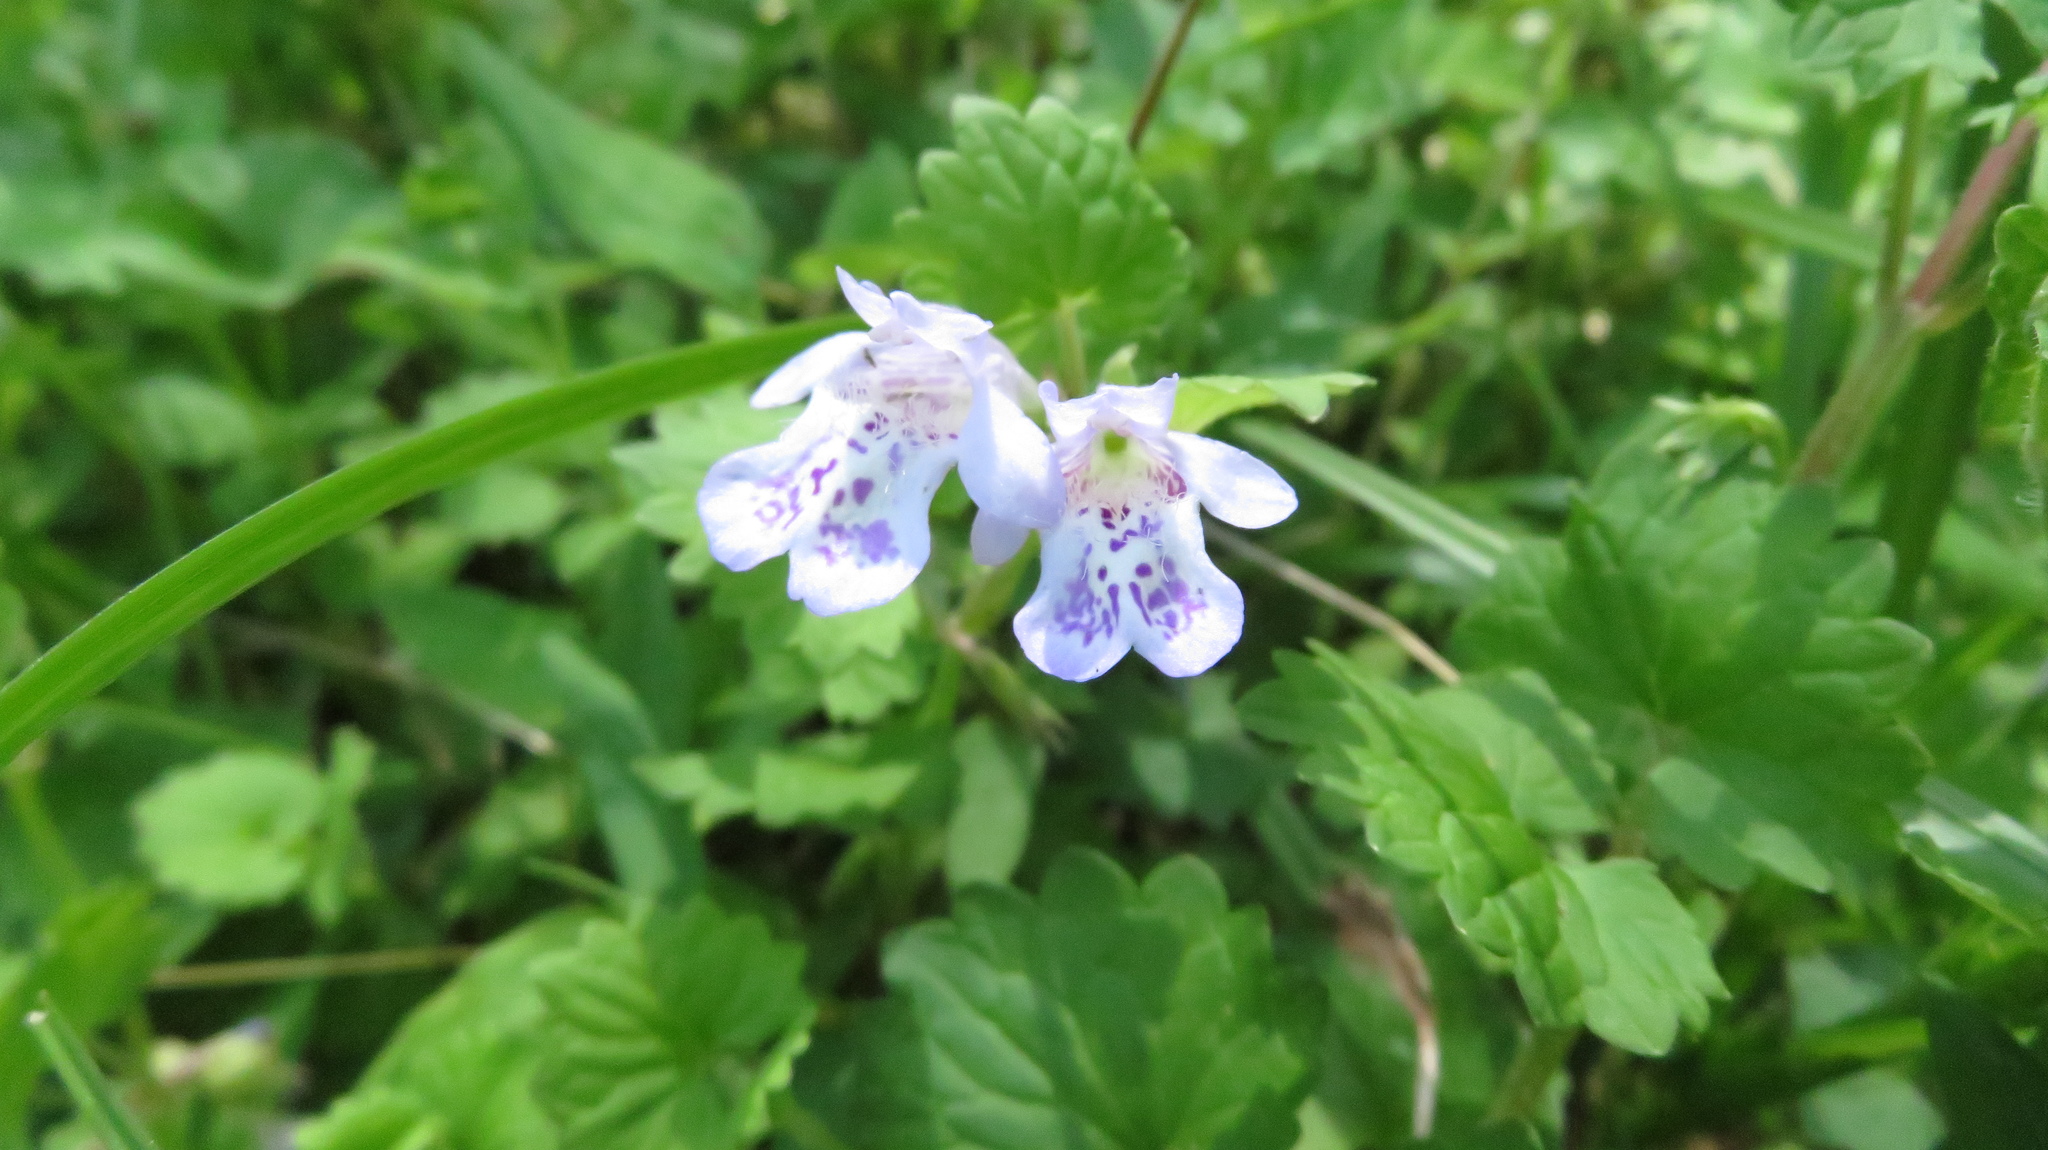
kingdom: Plantae
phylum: Tracheophyta
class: Magnoliopsida
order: Lamiales
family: Lamiaceae
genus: Glechoma
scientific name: Glechoma grandis
